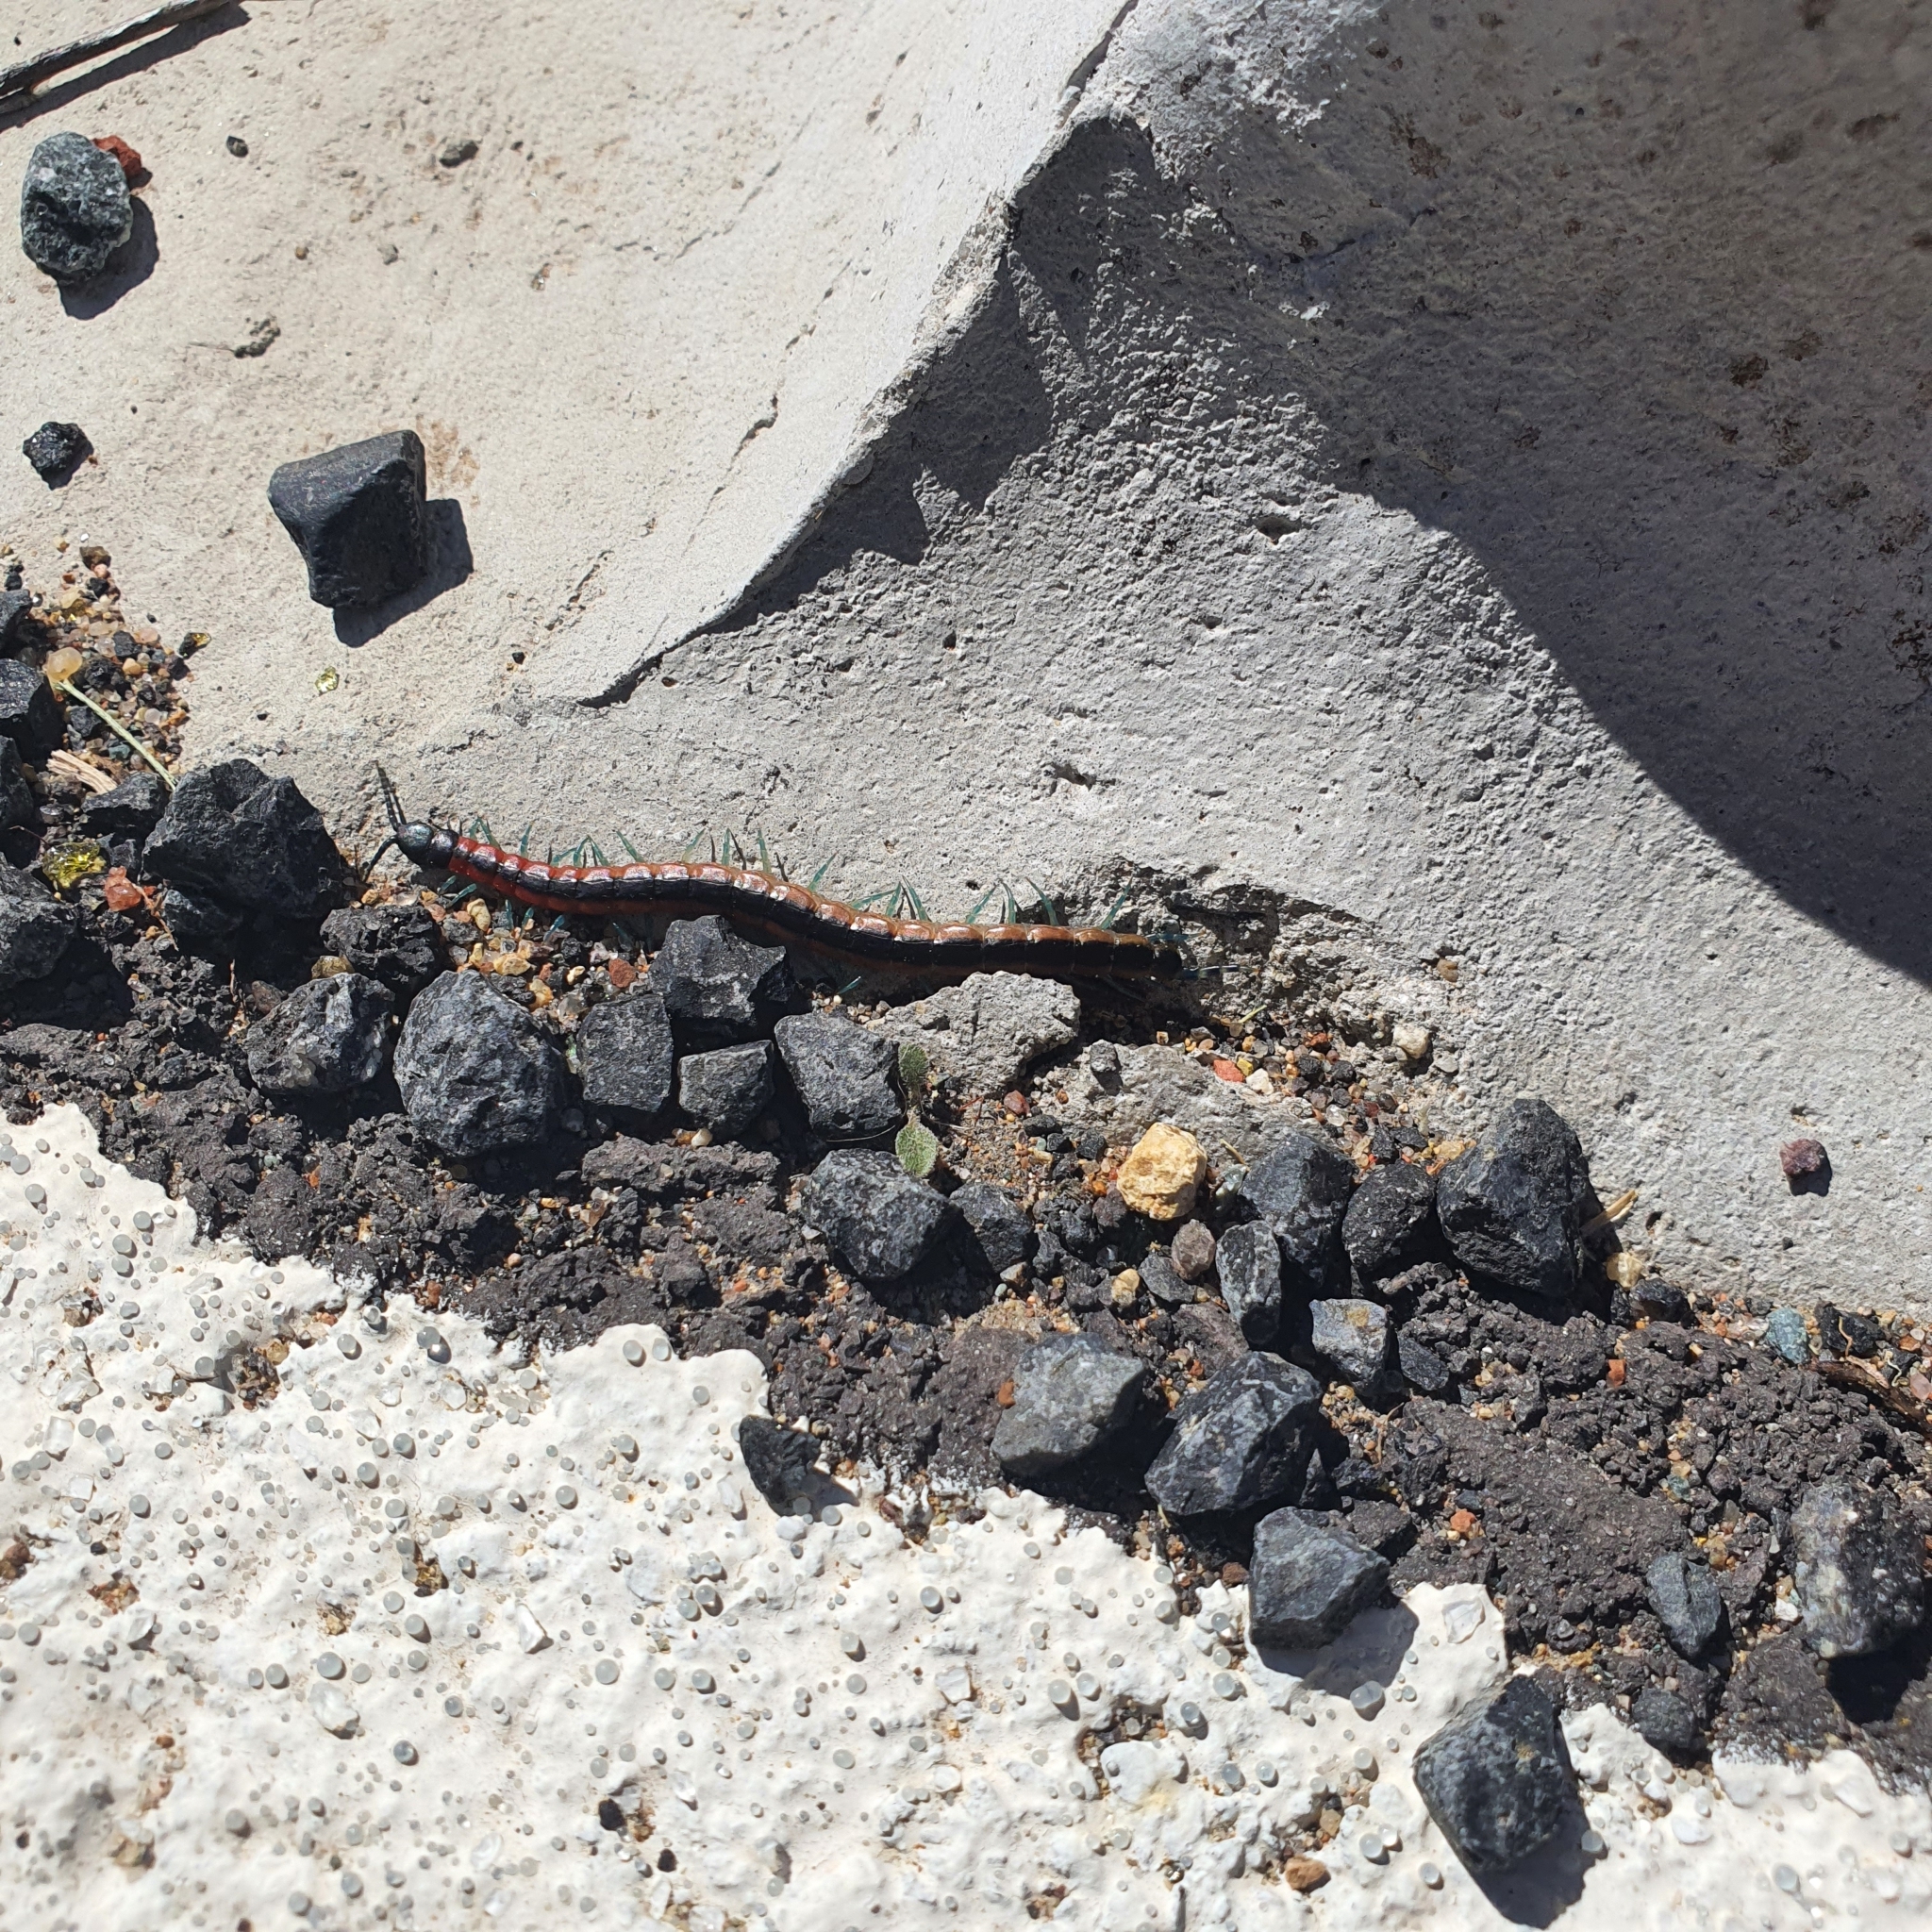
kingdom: Animalia
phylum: Arthropoda
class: Chilopoda
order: Scolopendromorpha
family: Scolopendridae
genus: Scolopendra
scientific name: Scolopendra laeta
